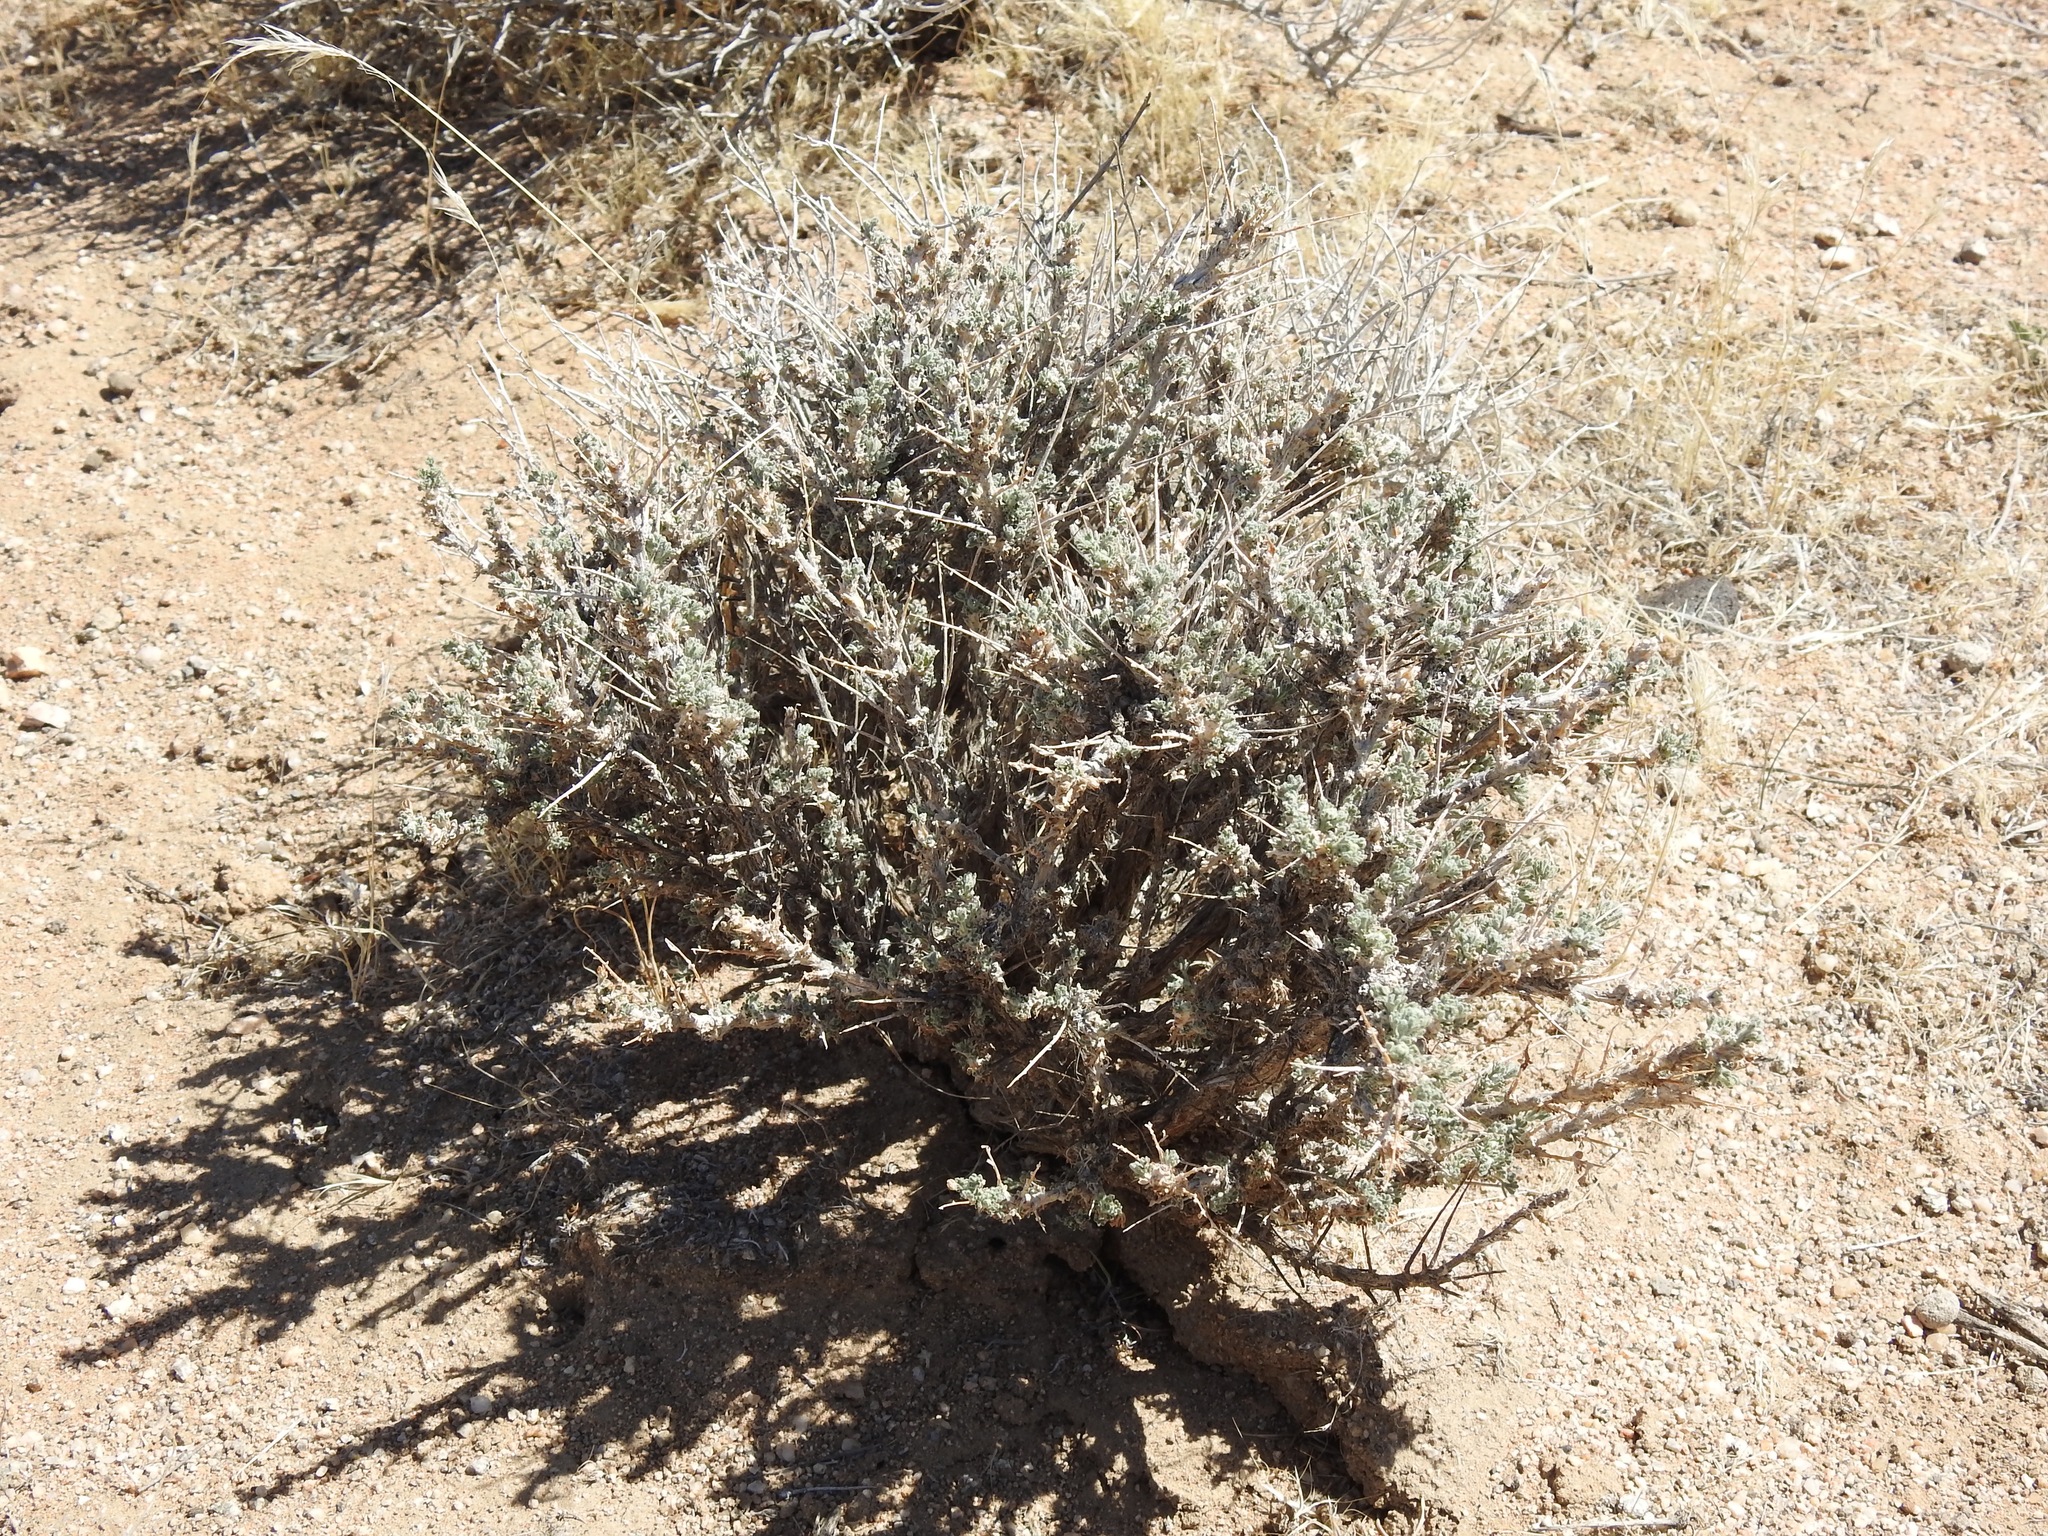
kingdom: Plantae
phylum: Tracheophyta
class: Magnoliopsida
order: Asterales
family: Asteraceae
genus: Artemisia
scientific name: Artemisia spinescens
